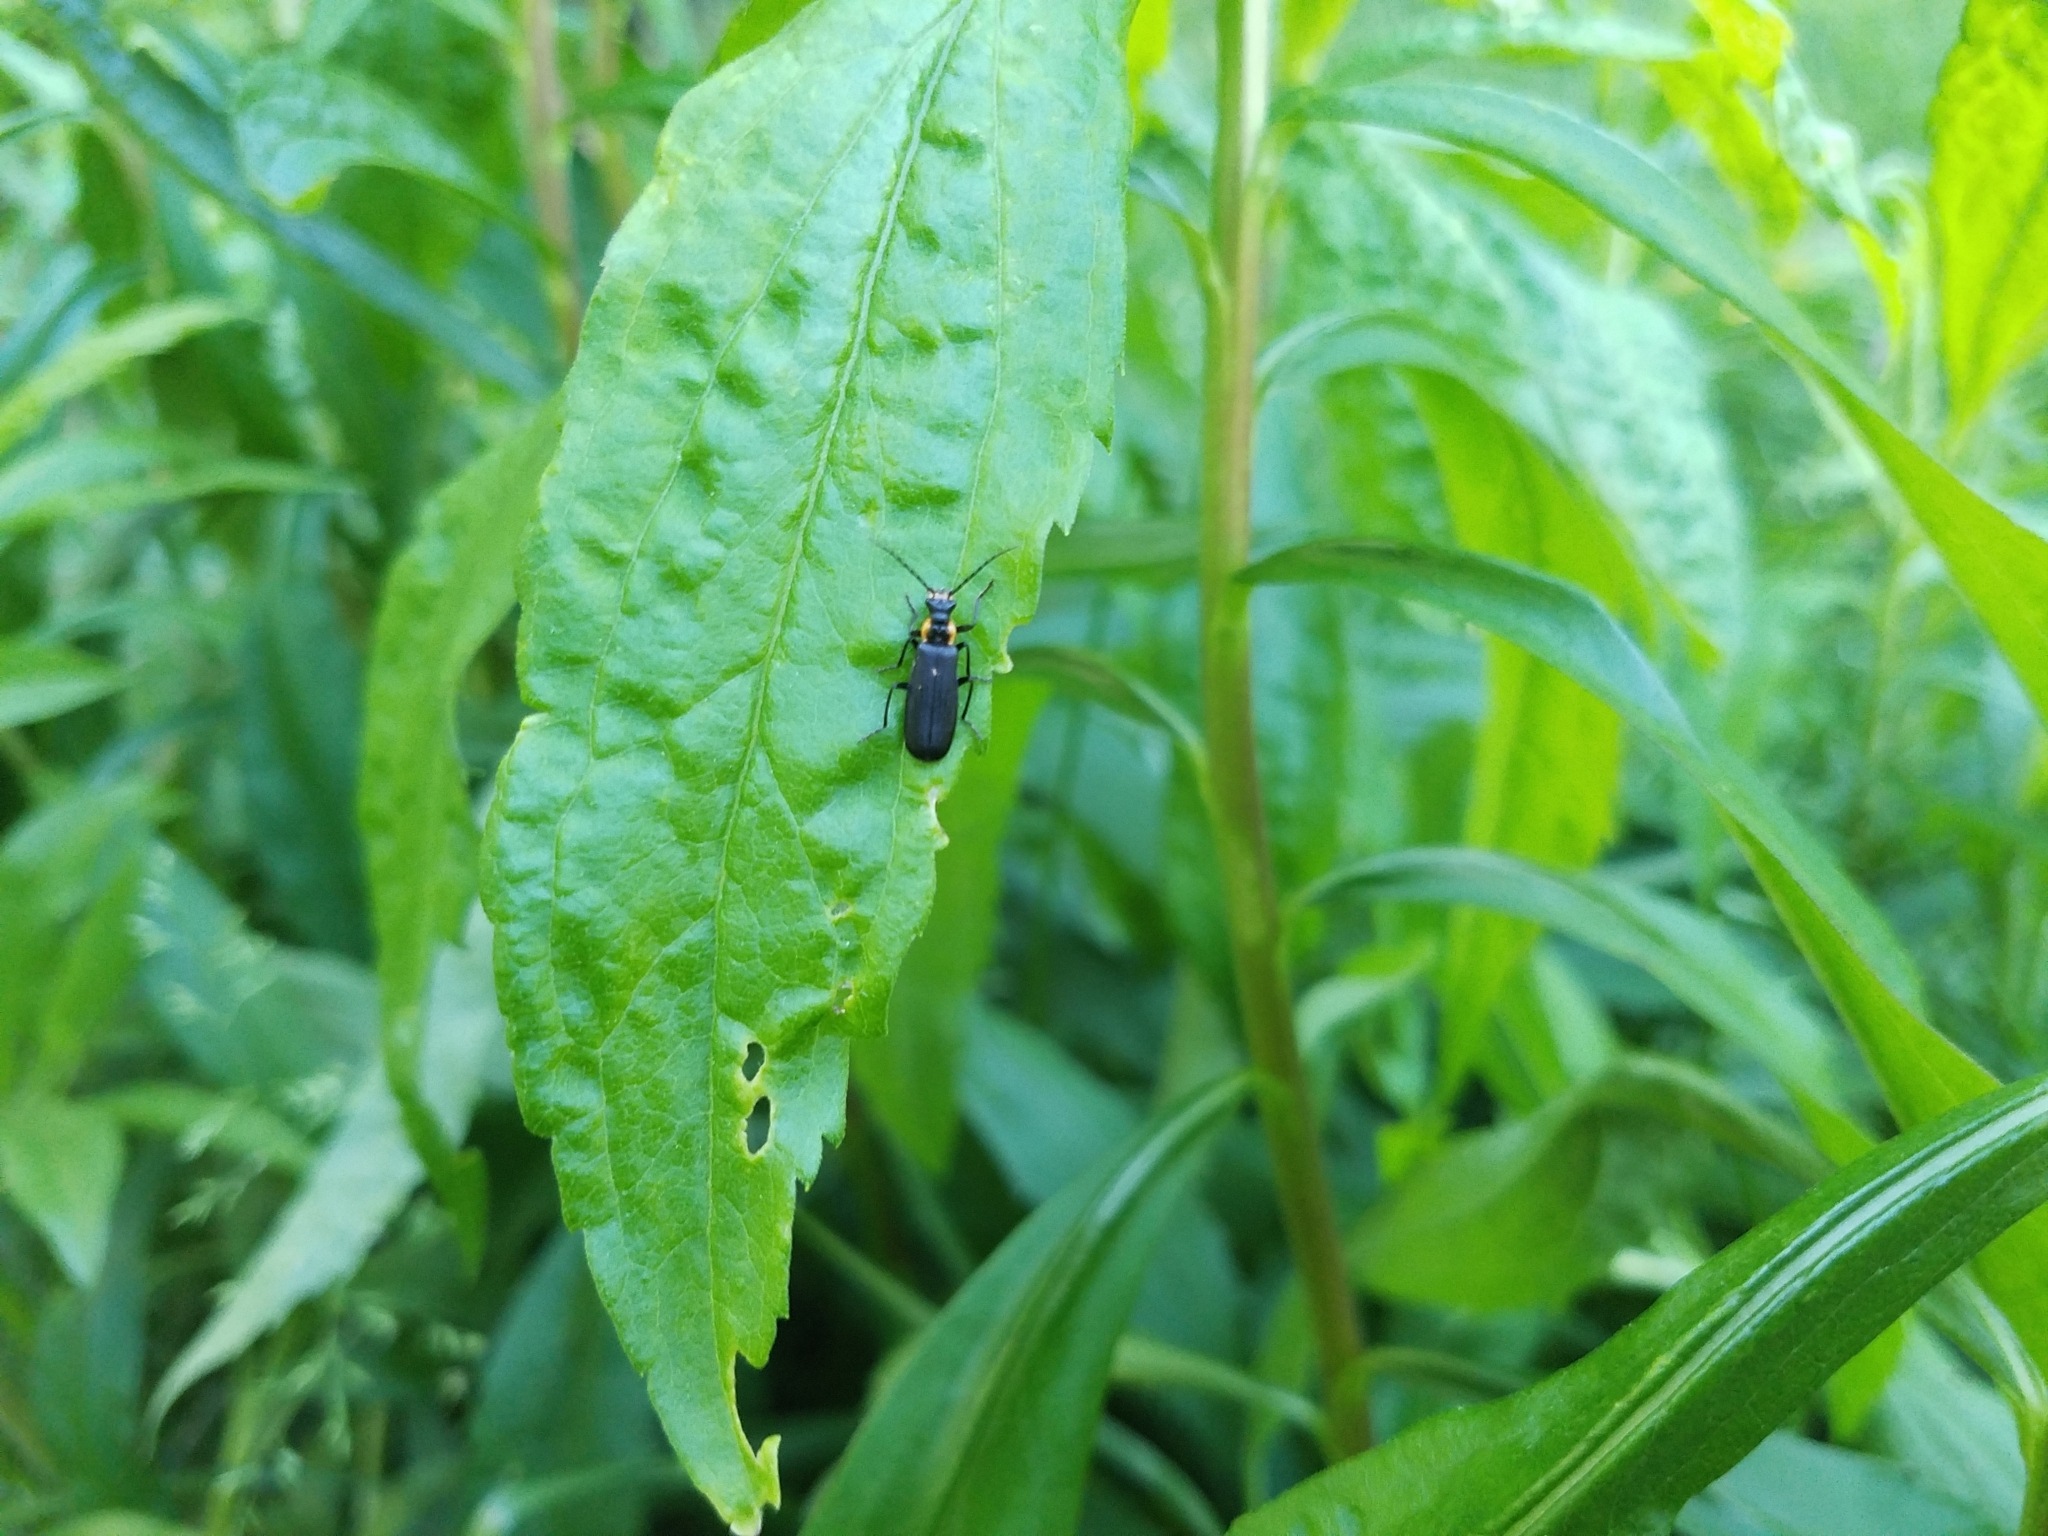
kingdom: Animalia
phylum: Arthropoda
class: Insecta
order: Coleoptera
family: Cantharidae
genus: Podabrus
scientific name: Podabrus rugosulus
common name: Wrinkled soldier beetle
